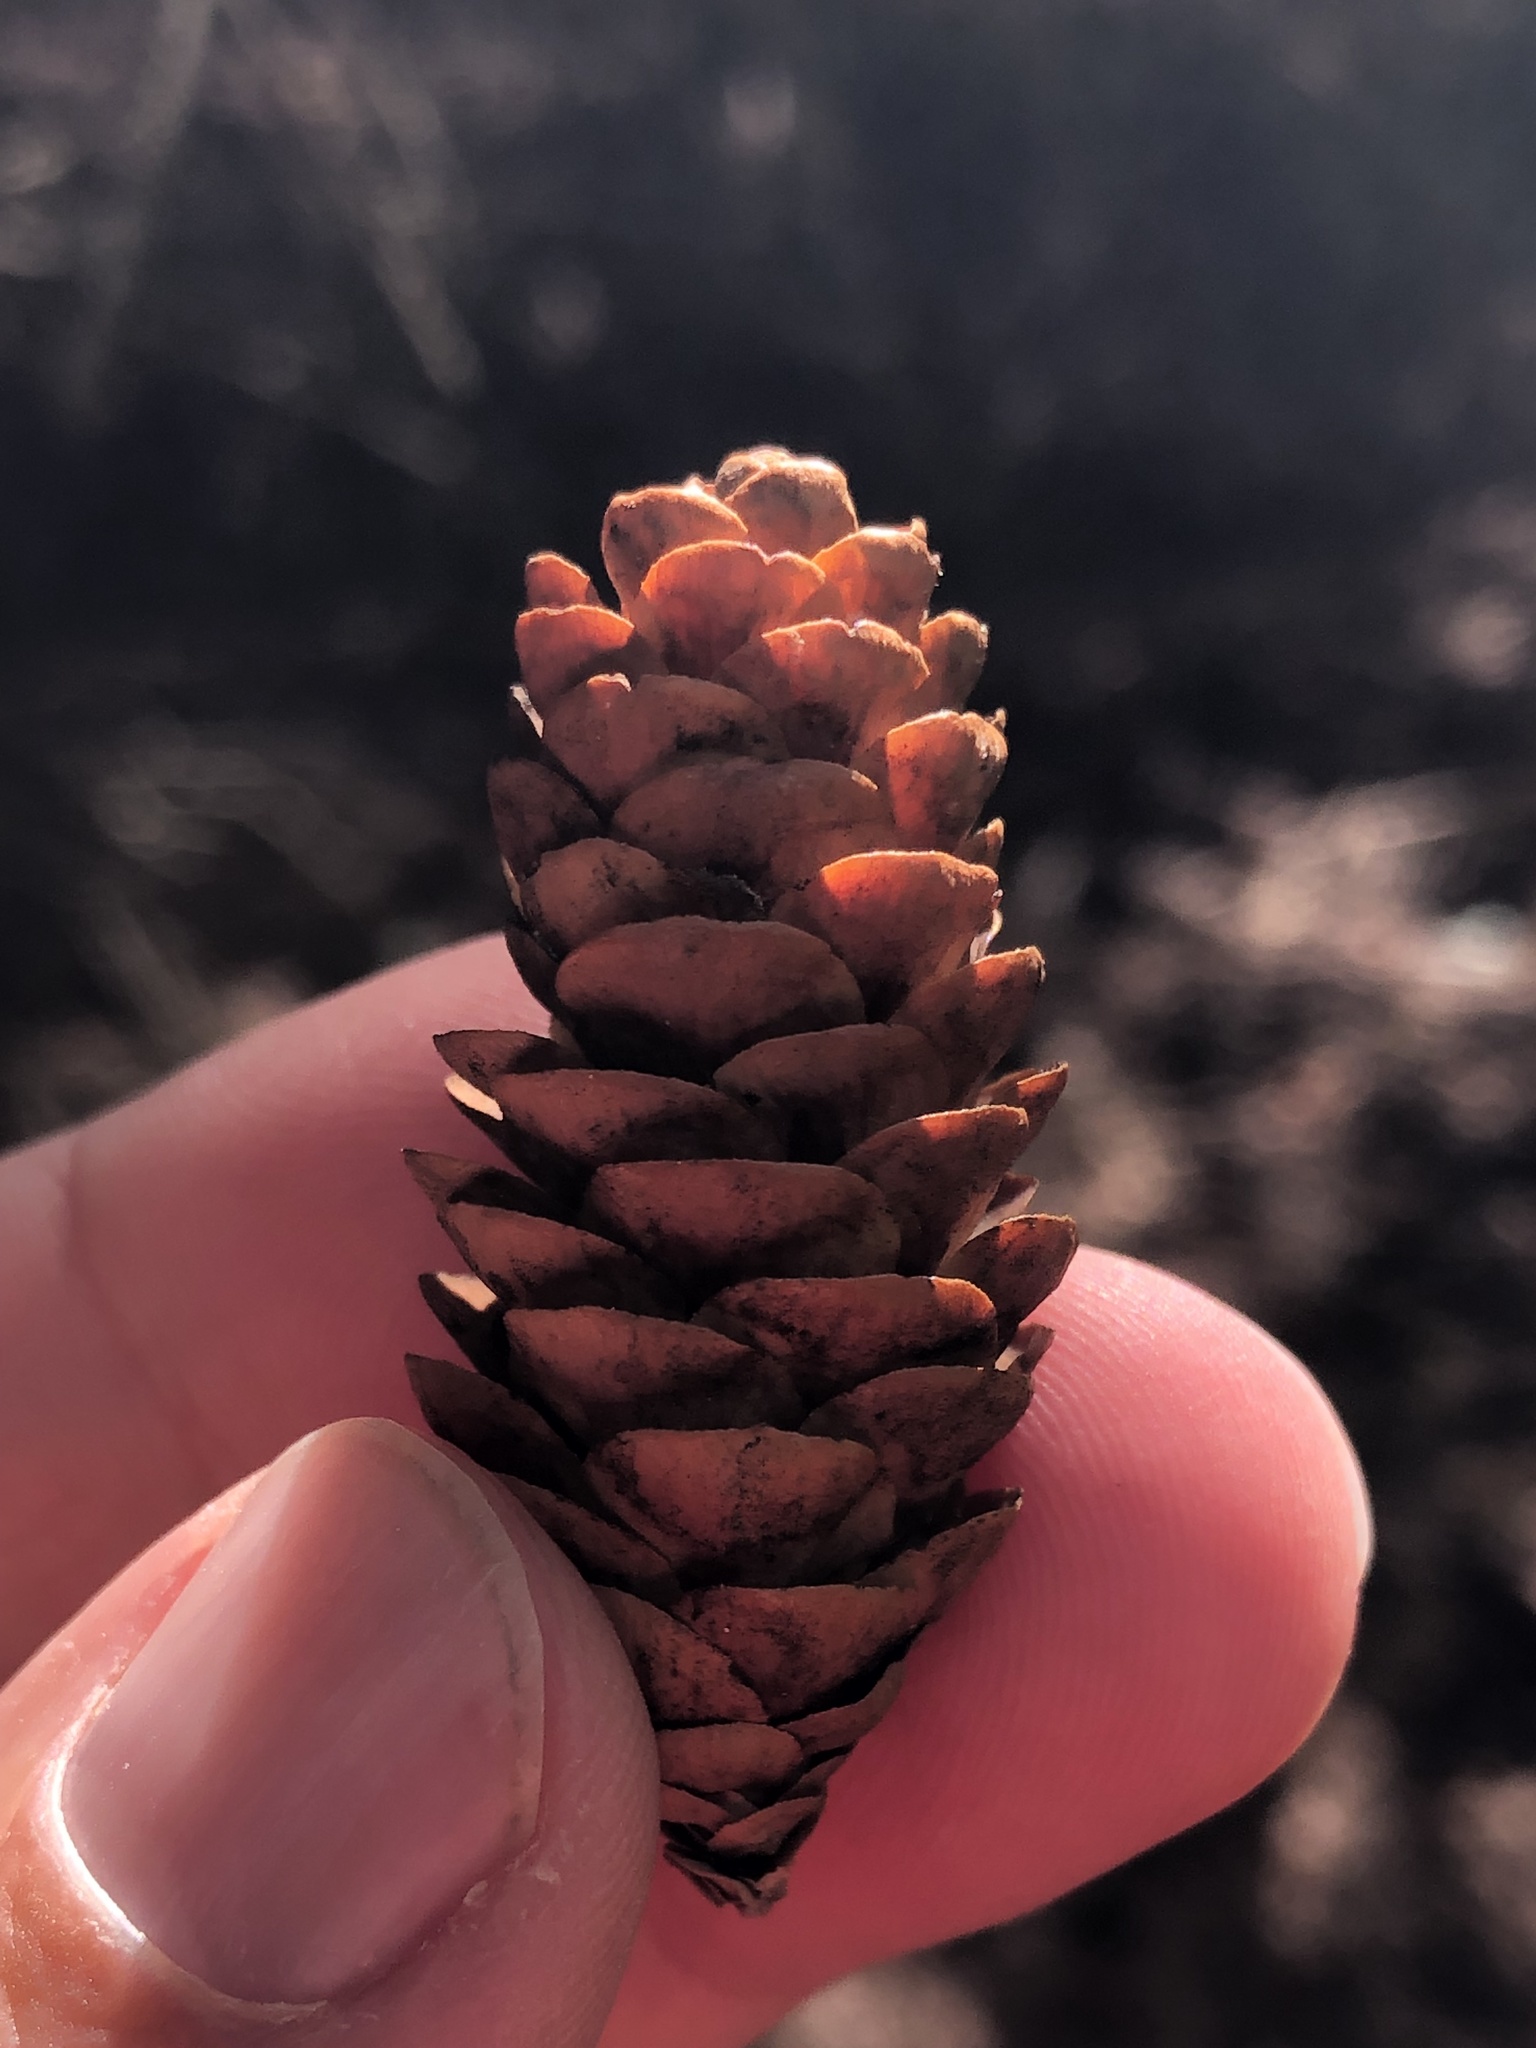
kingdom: Plantae
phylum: Tracheophyta
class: Pinopsida
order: Pinales
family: Pinaceae
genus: Picea
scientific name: Picea glauca
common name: White spruce
